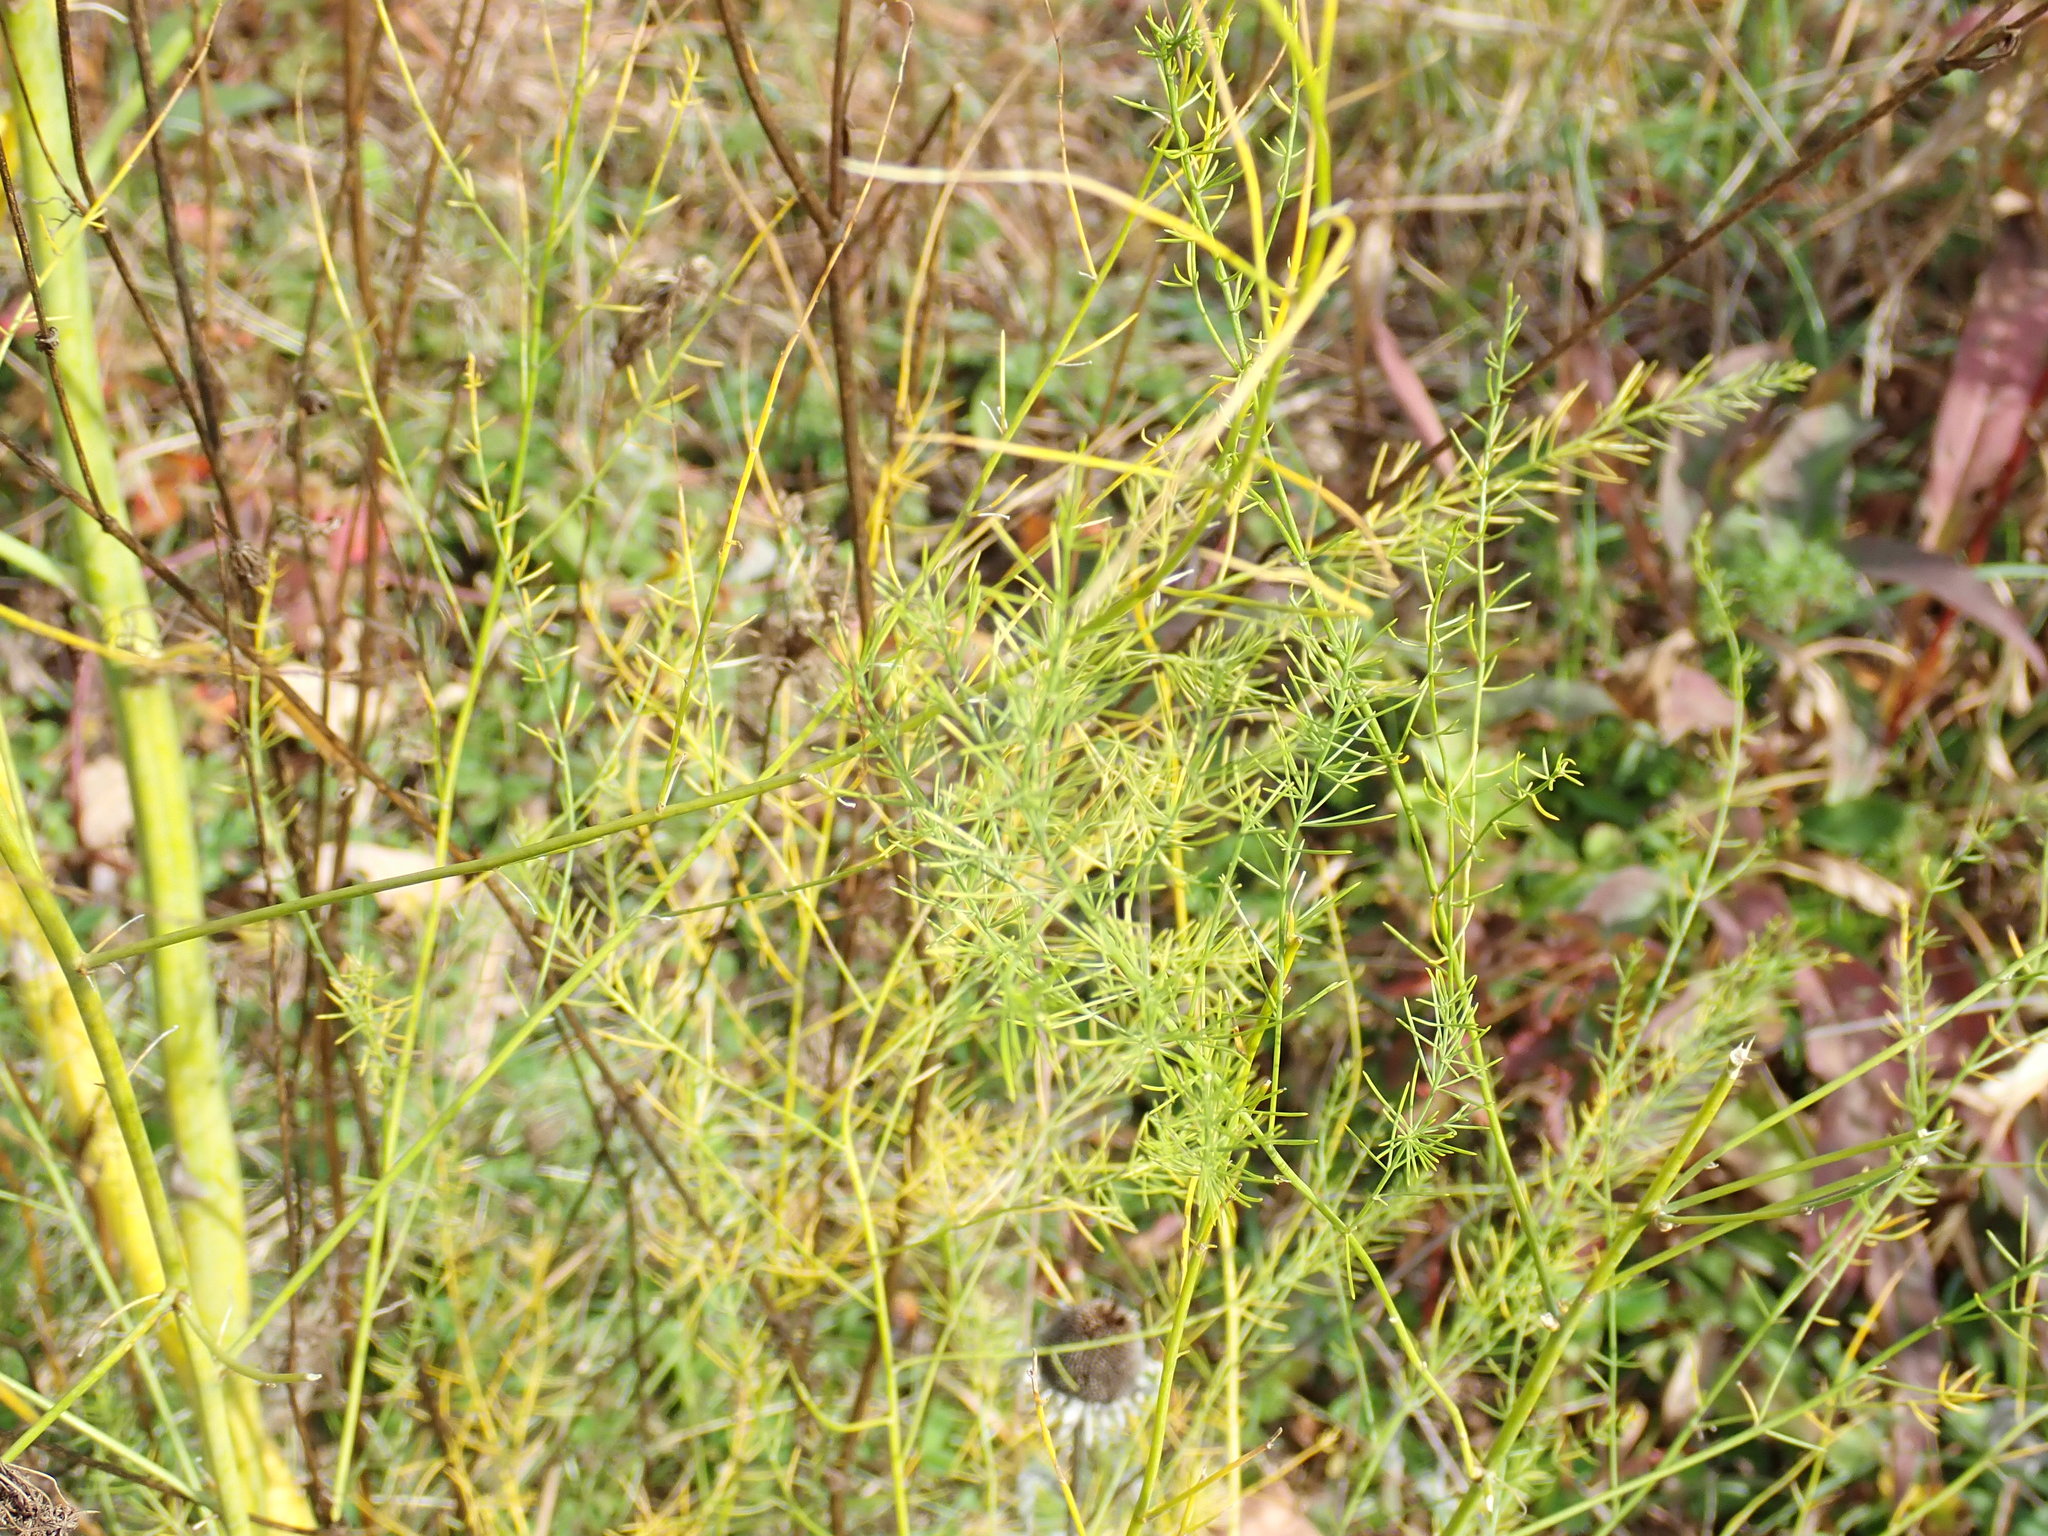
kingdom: Plantae
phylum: Tracheophyta
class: Liliopsida
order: Asparagales
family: Asparagaceae
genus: Asparagus
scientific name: Asparagus officinalis
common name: Garden asparagus
